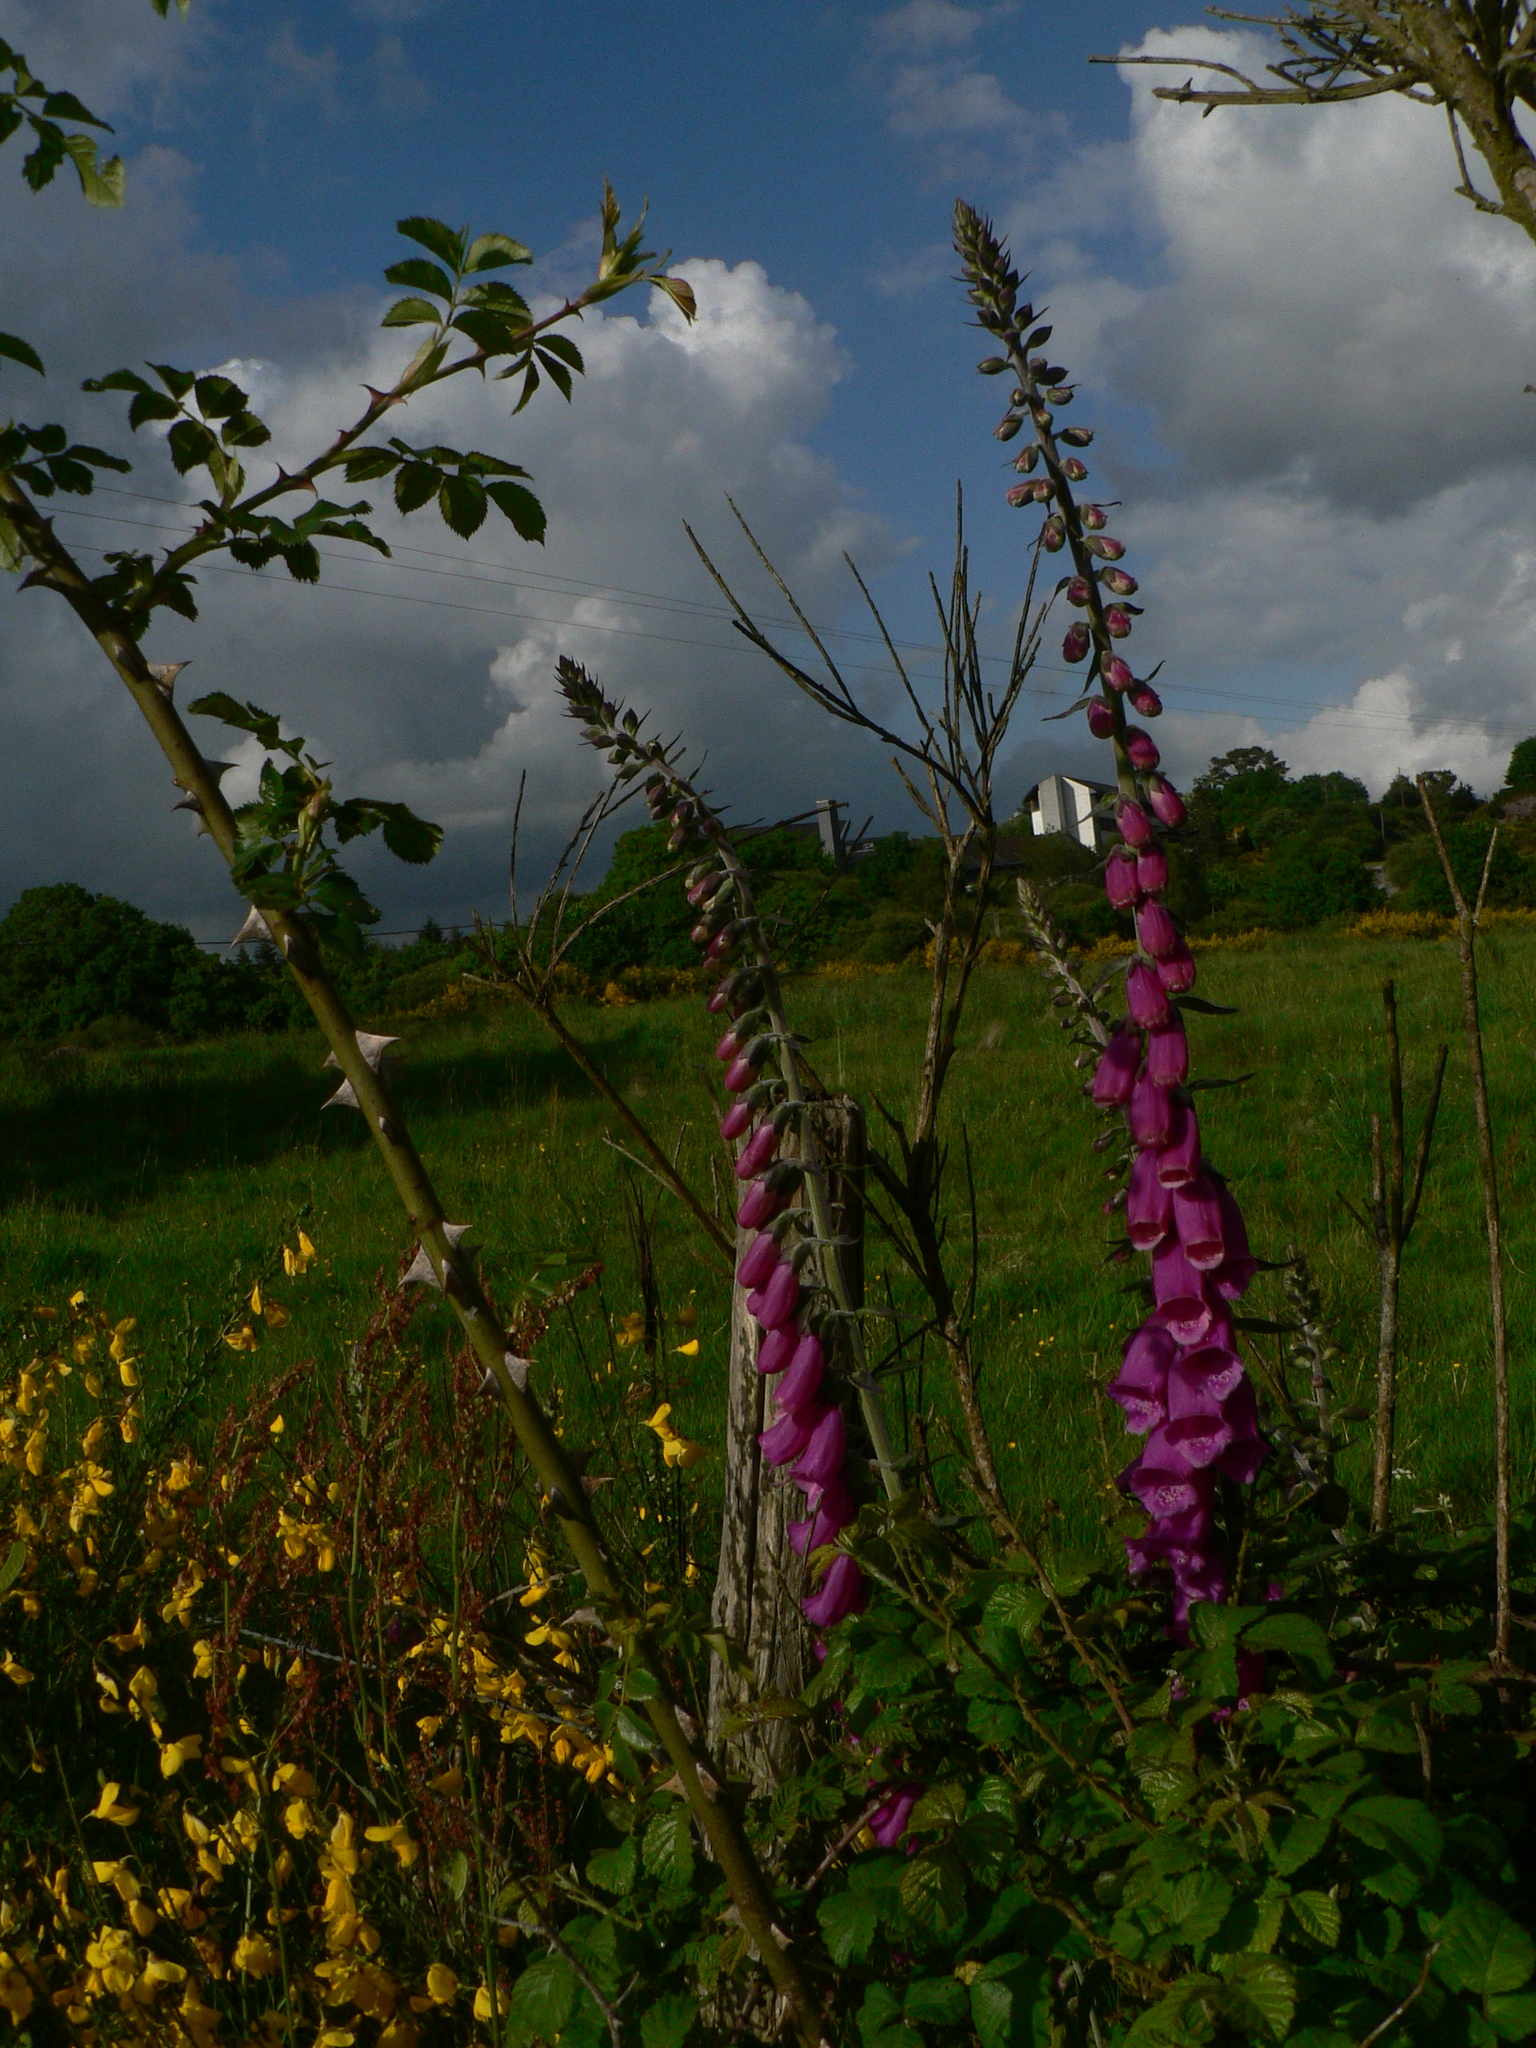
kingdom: Plantae
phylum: Tracheophyta
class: Magnoliopsida
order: Lamiales
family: Plantaginaceae
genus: Digitalis
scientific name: Digitalis purpurea
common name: Foxglove
